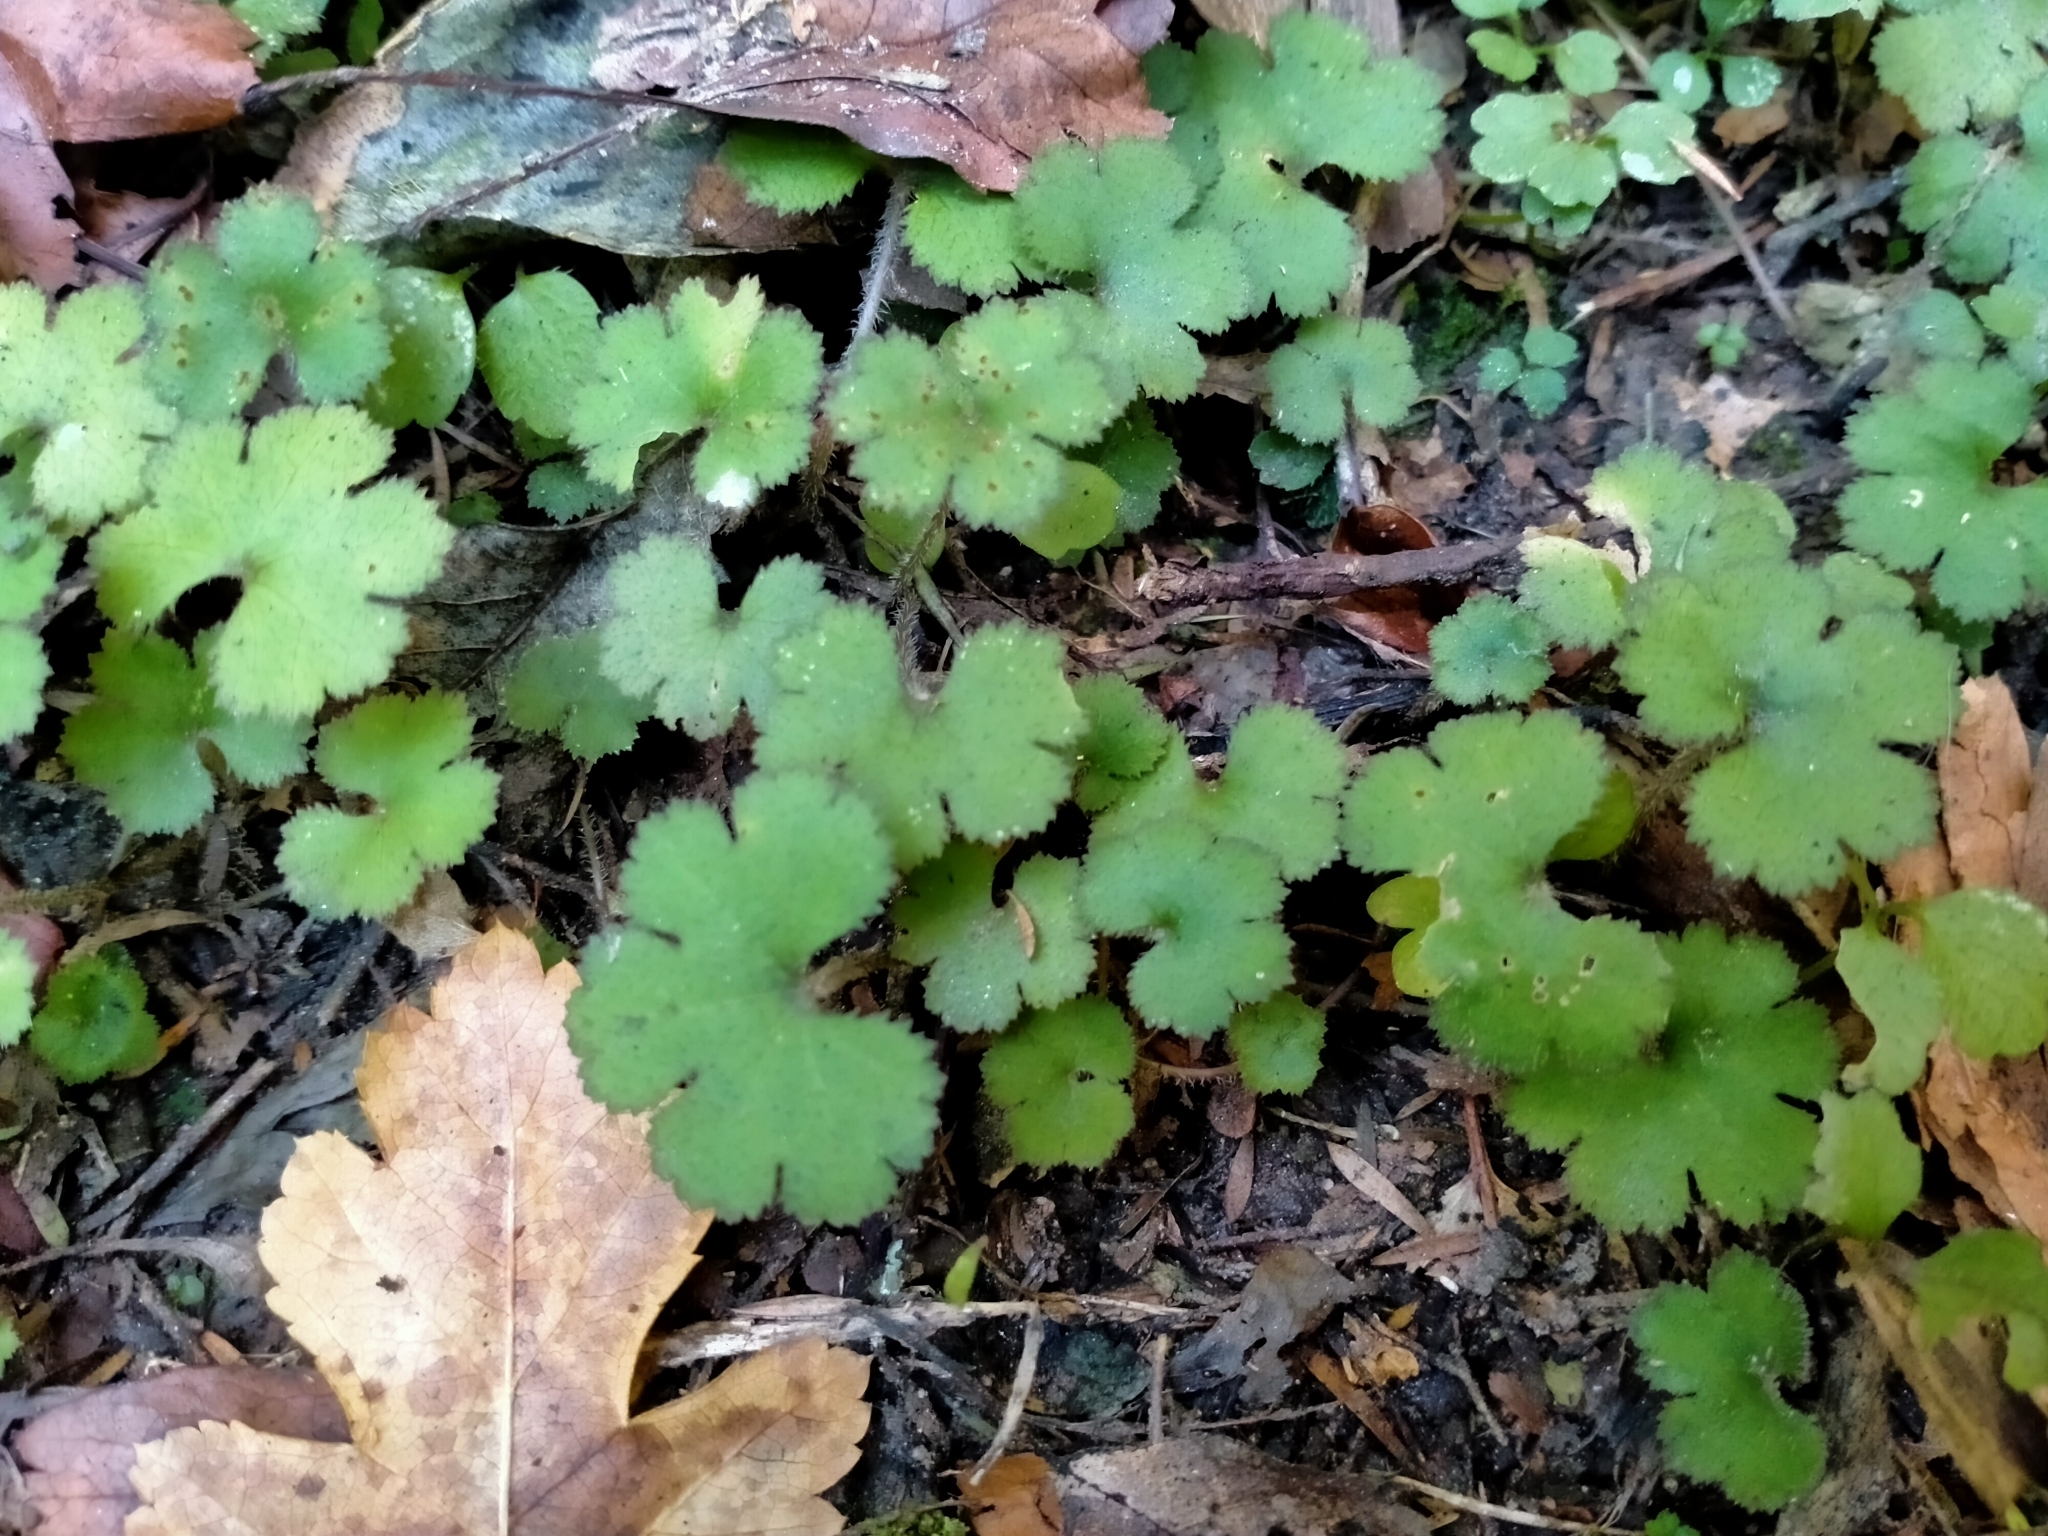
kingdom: Plantae
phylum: Tracheophyta
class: Magnoliopsida
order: Apiales
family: Araliaceae
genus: Hydrocotyle
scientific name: Hydrocotyle elongata
